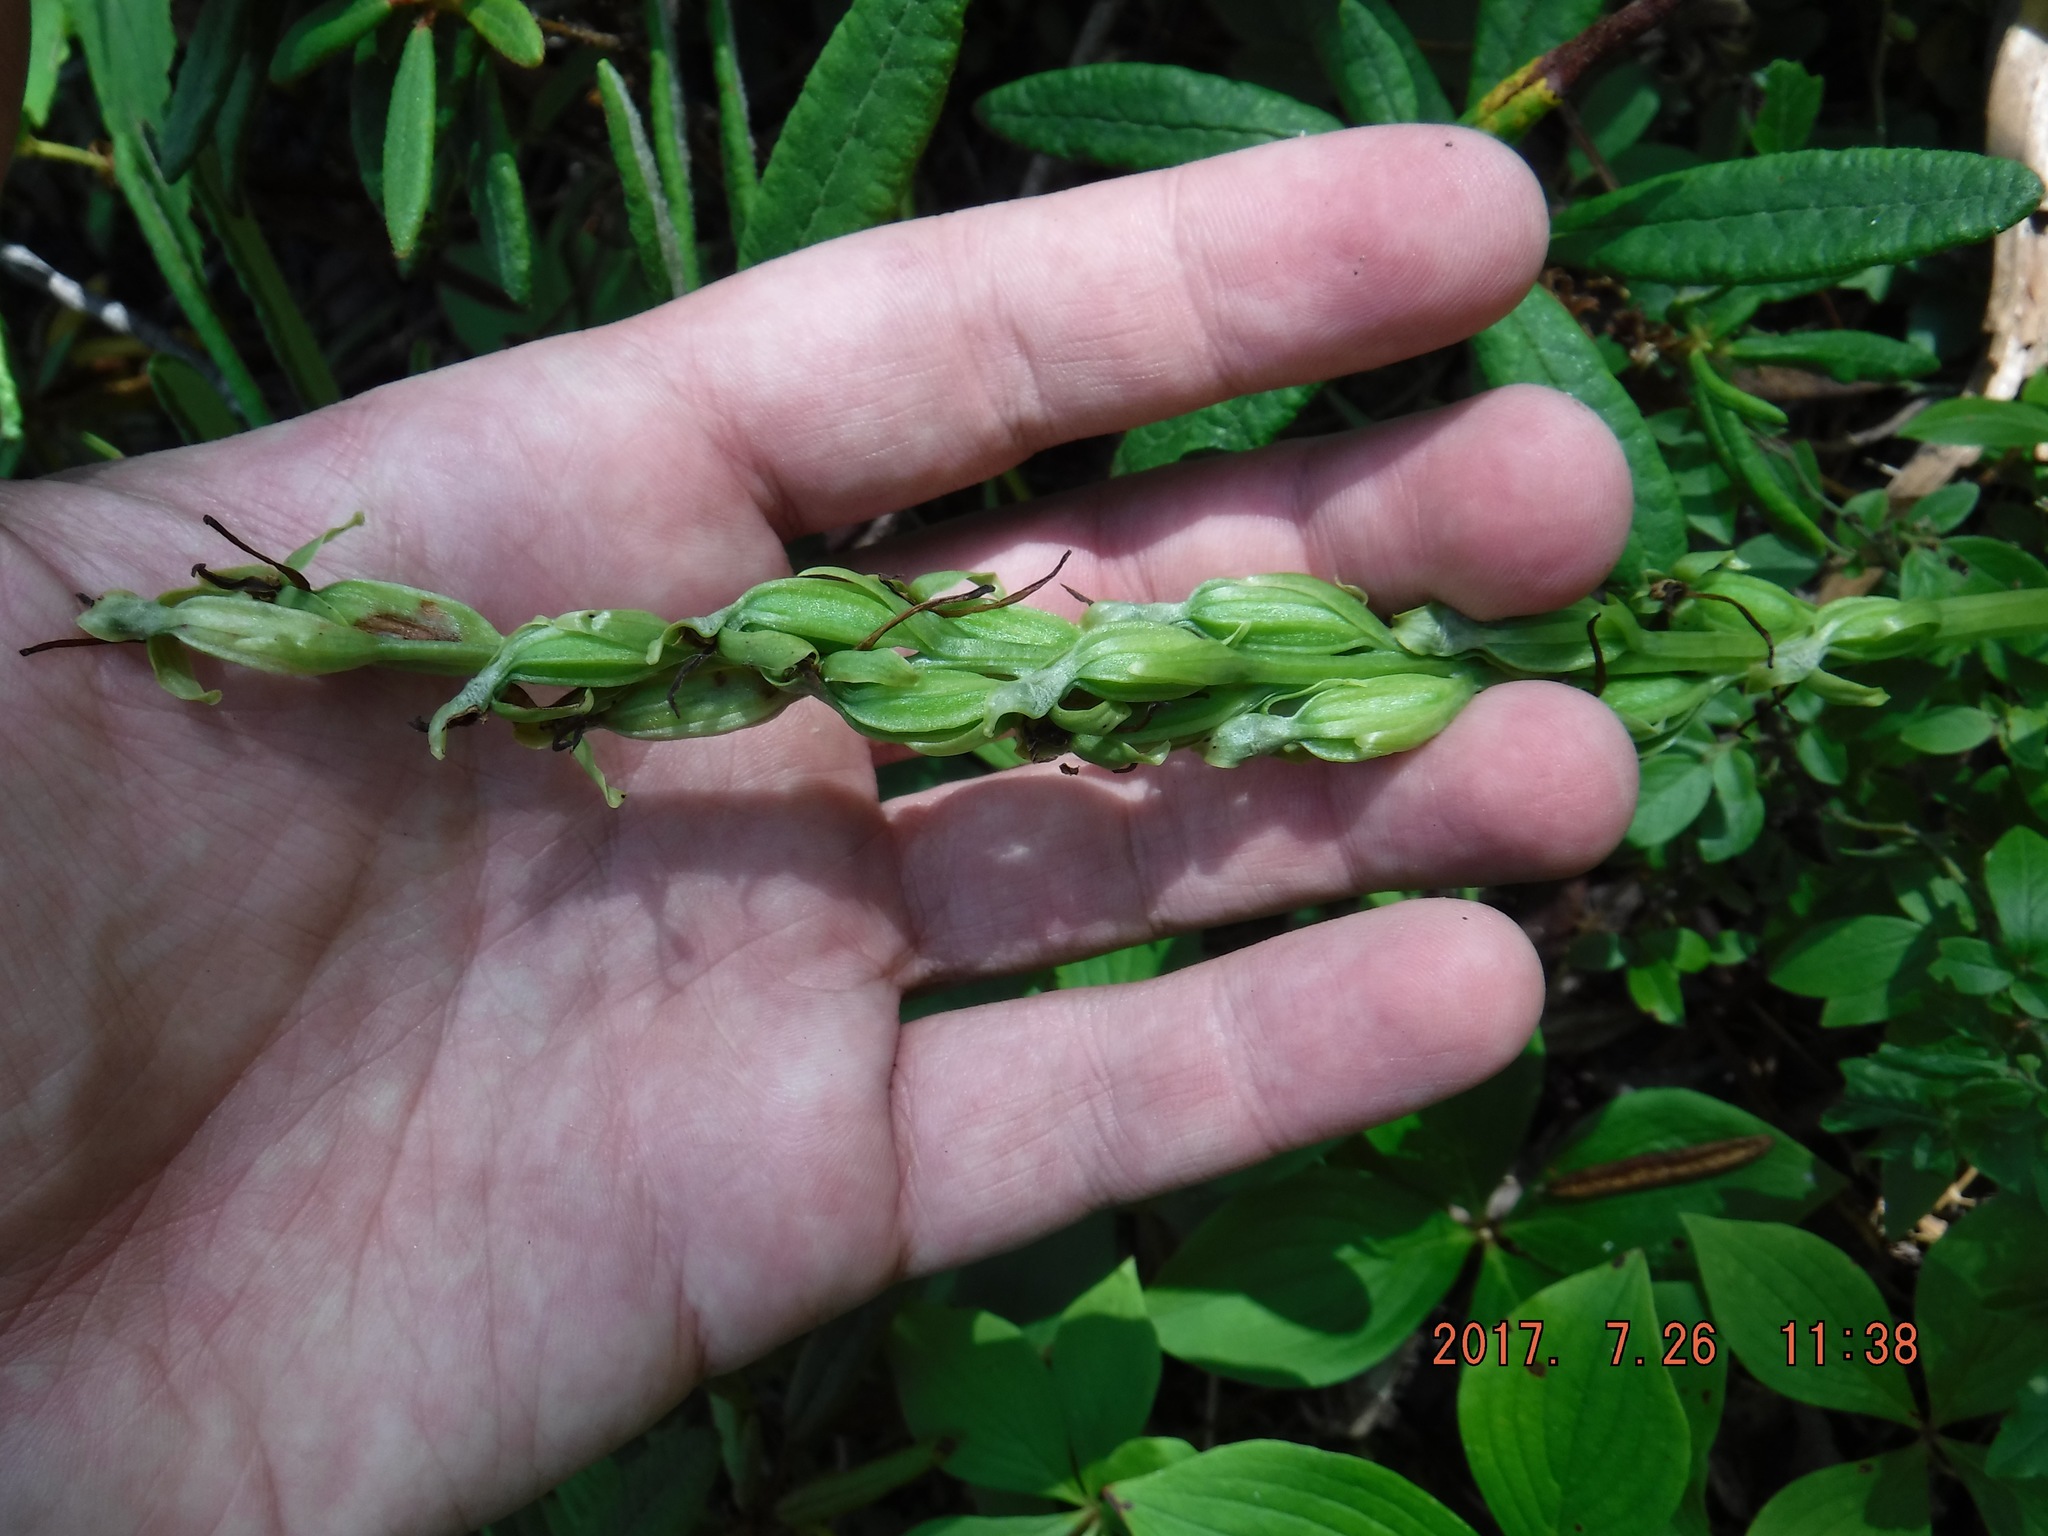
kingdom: Plantae
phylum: Tracheophyta
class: Liliopsida
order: Asparagales
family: Orchidaceae
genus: Platanthera
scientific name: Platanthera hookeri
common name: Hooker's orchid
